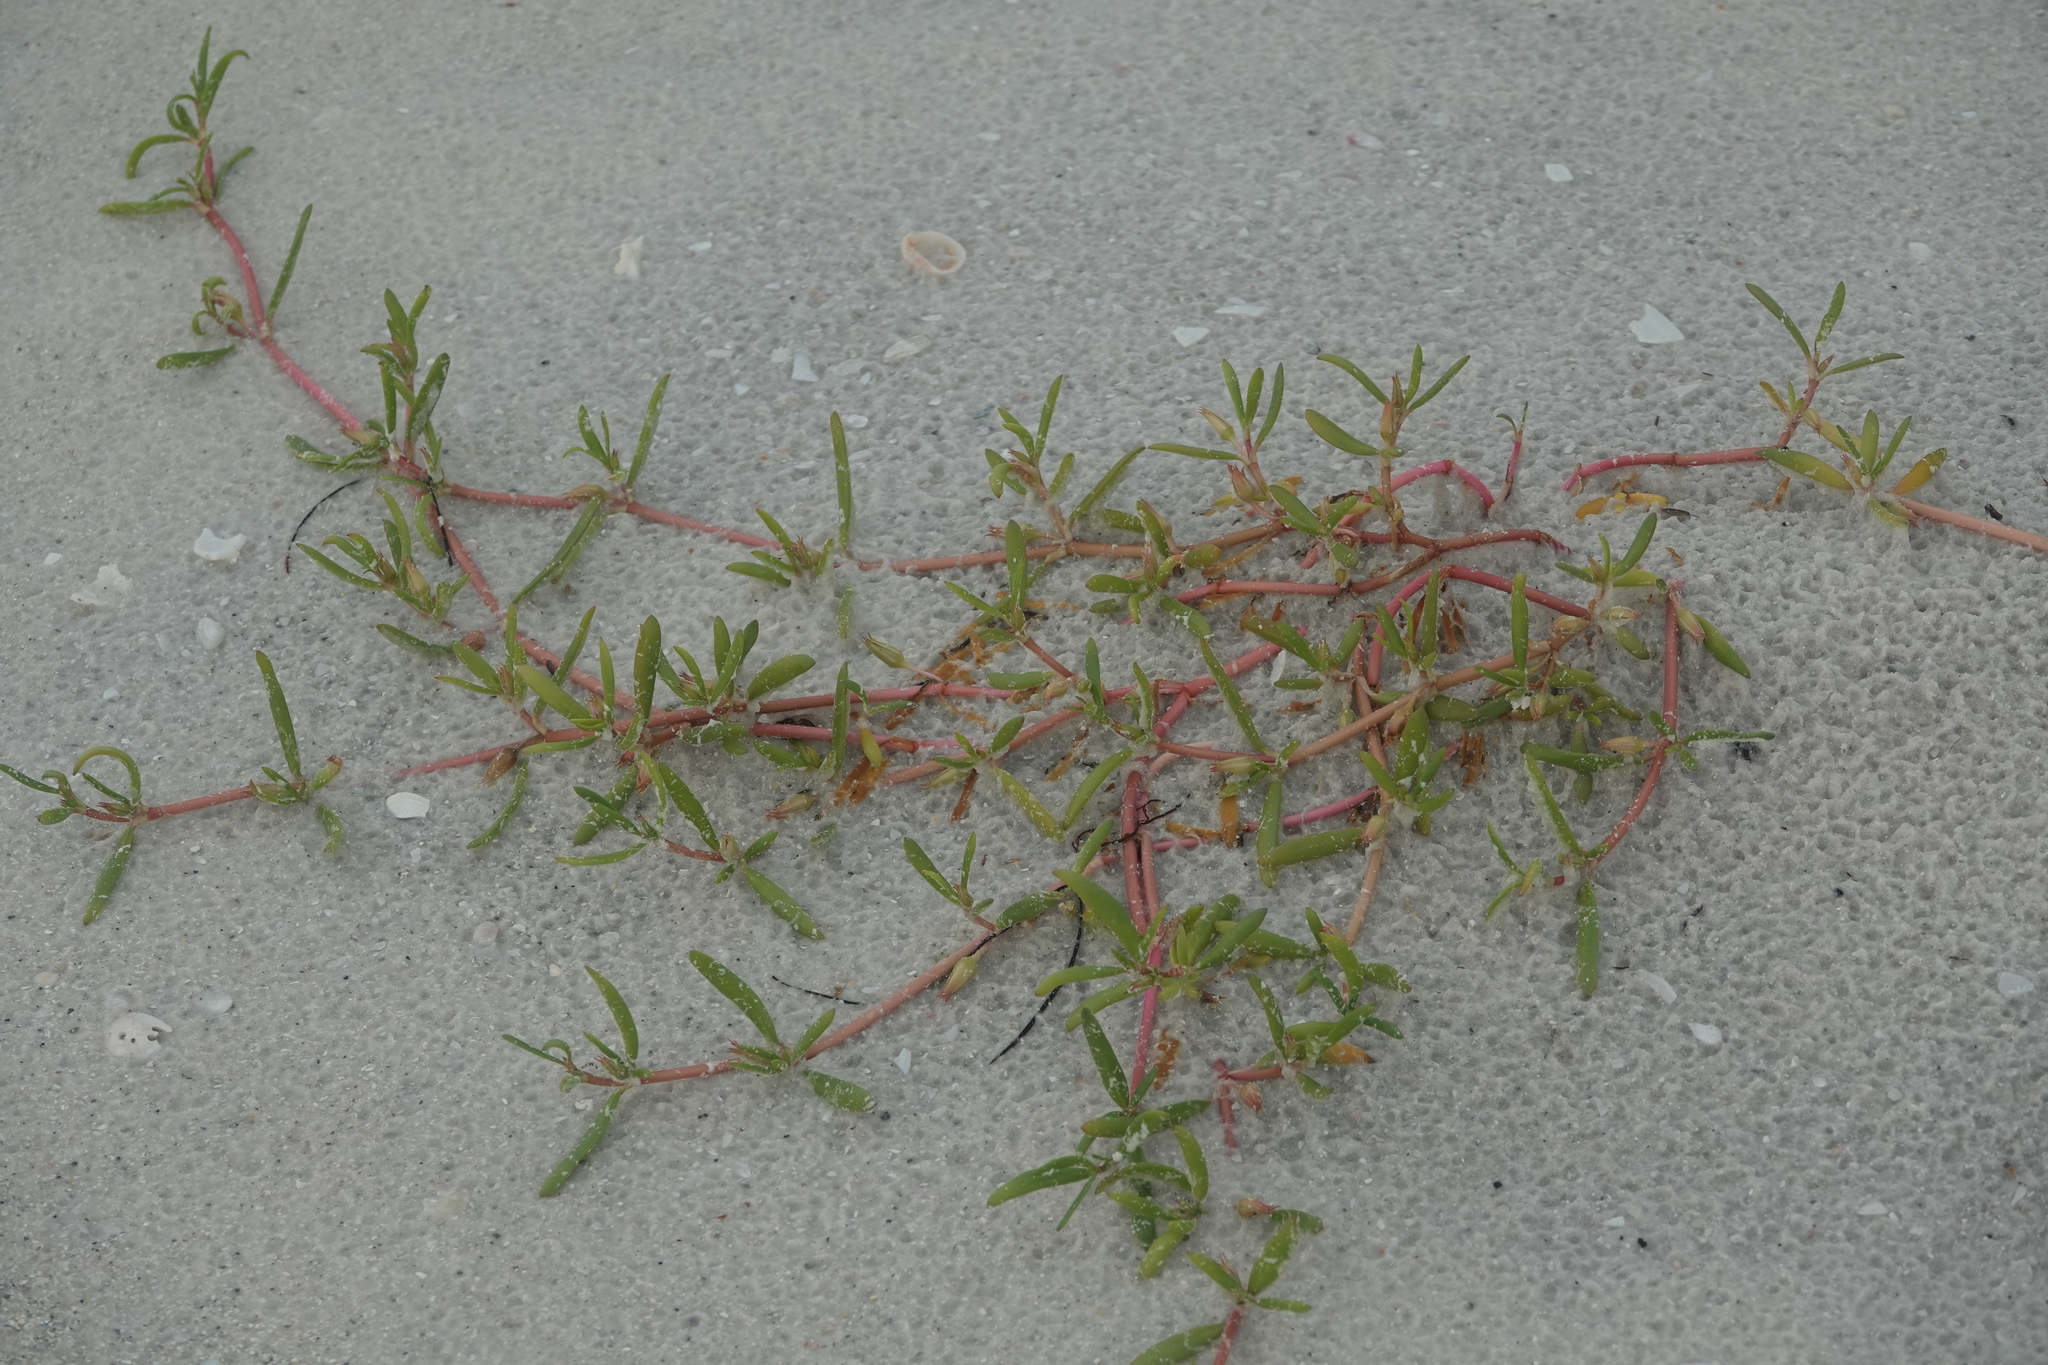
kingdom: Plantae
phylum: Tracheophyta
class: Magnoliopsida
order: Caryophyllales
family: Aizoaceae
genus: Sesuvium
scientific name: Sesuvium portulacastrum
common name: Sea-purslane
